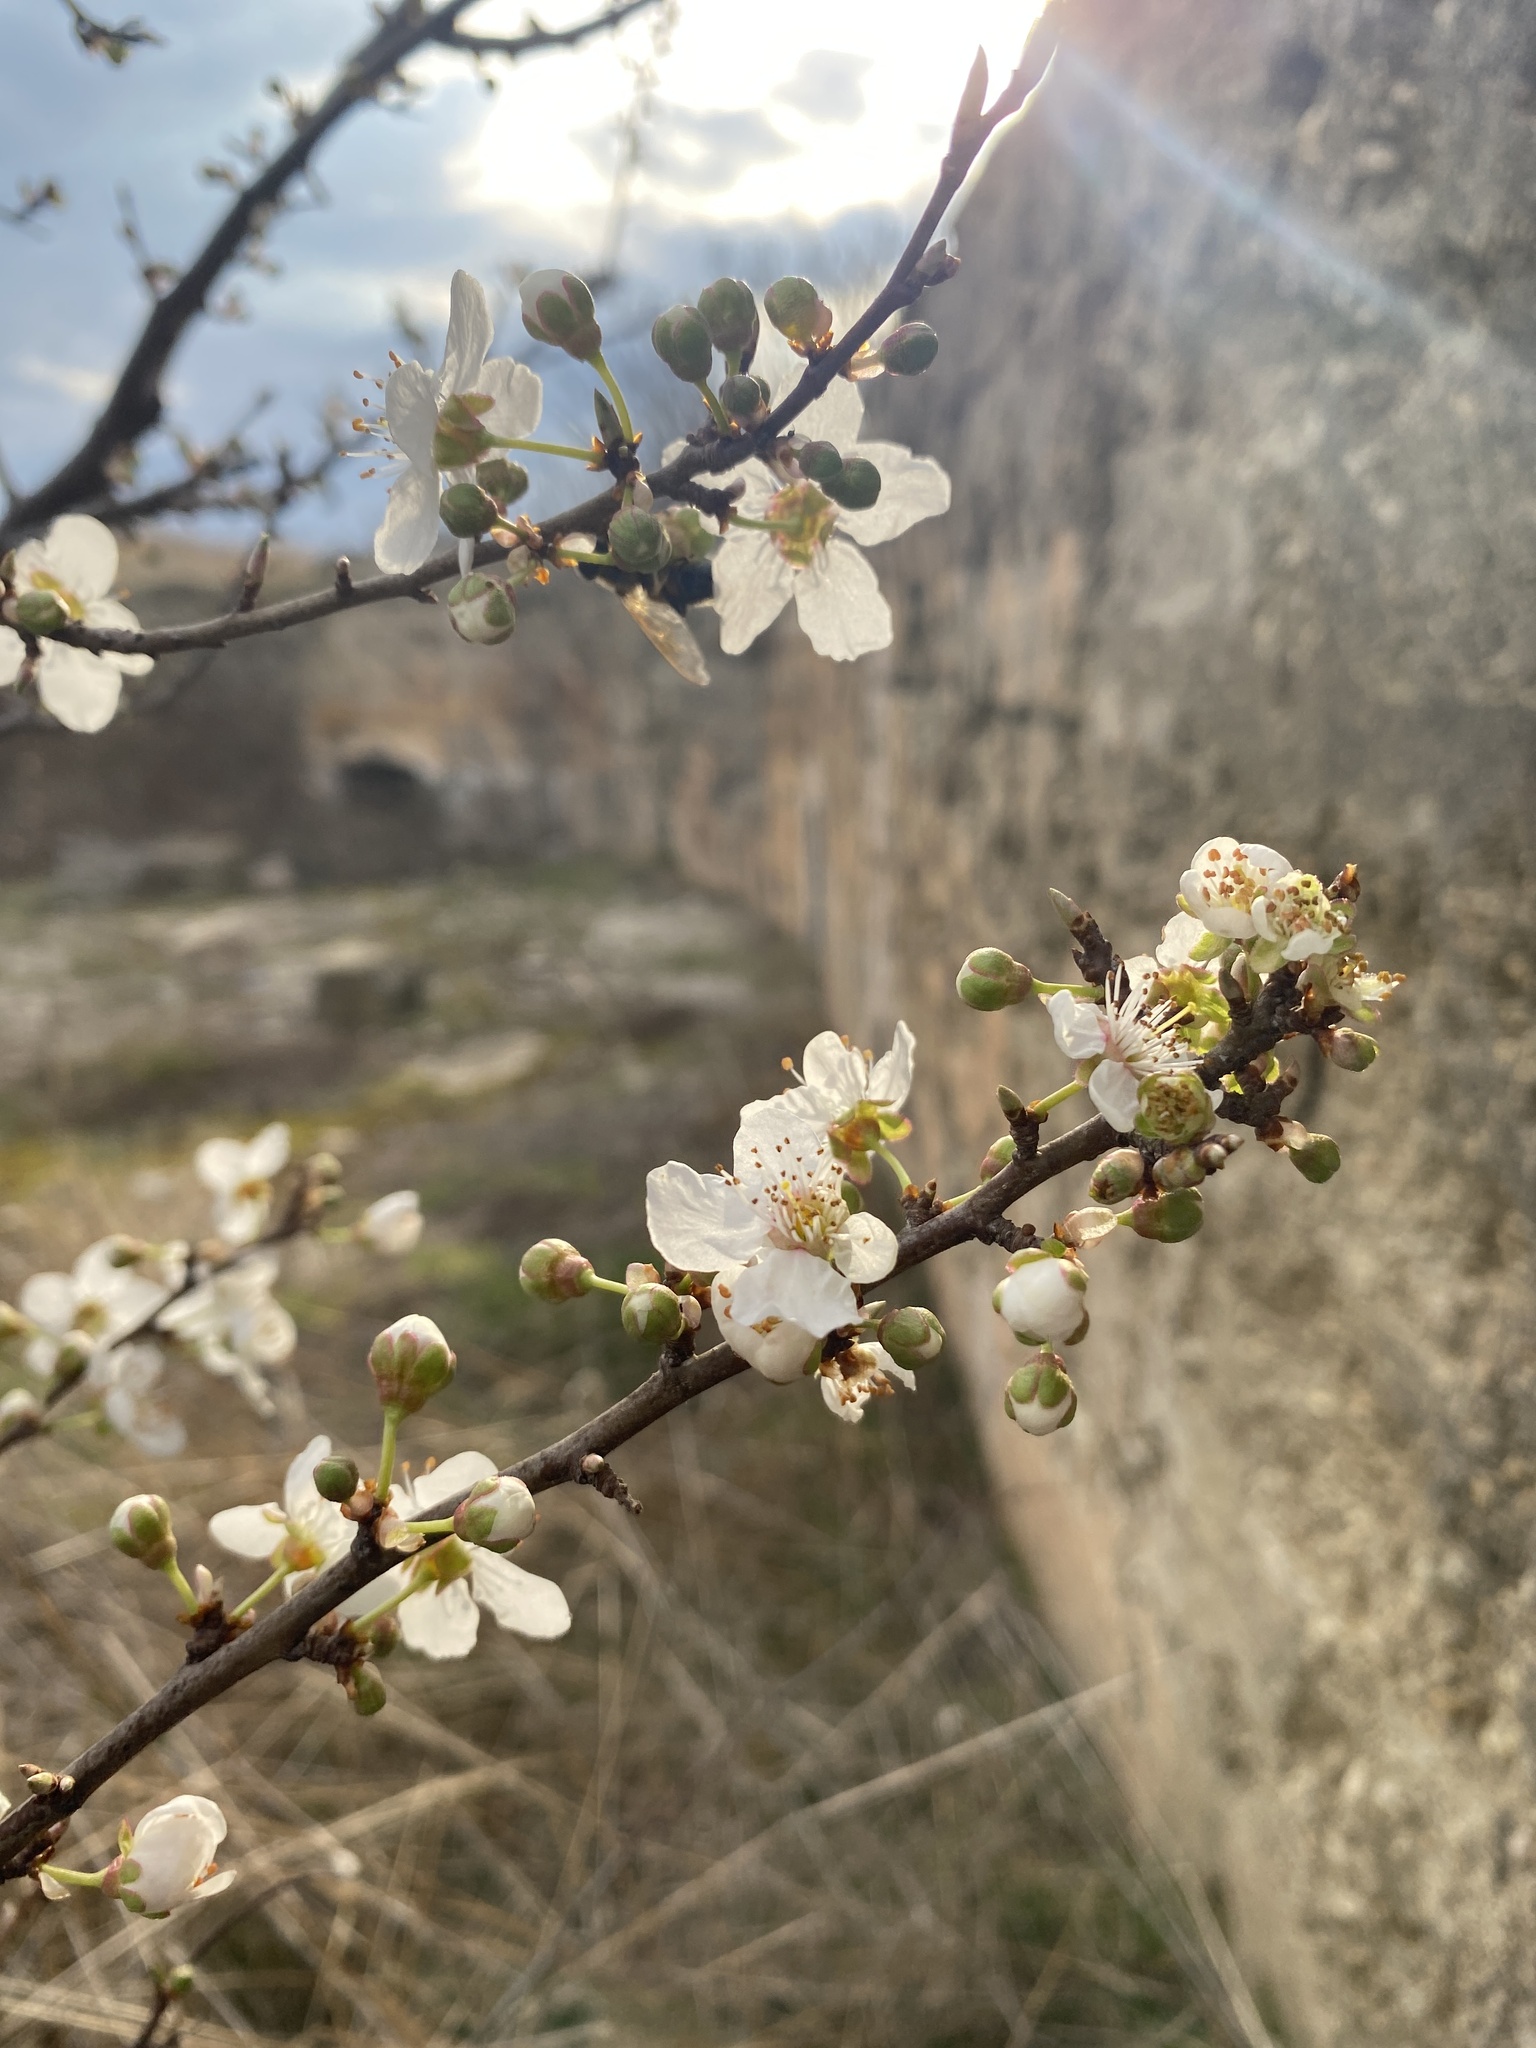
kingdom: Plantae
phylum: Tracheophyta
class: Magnoliopsida
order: Rosales
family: Rosaceae
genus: Prunus
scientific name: Prunus cerasifera
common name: Cherry plum
